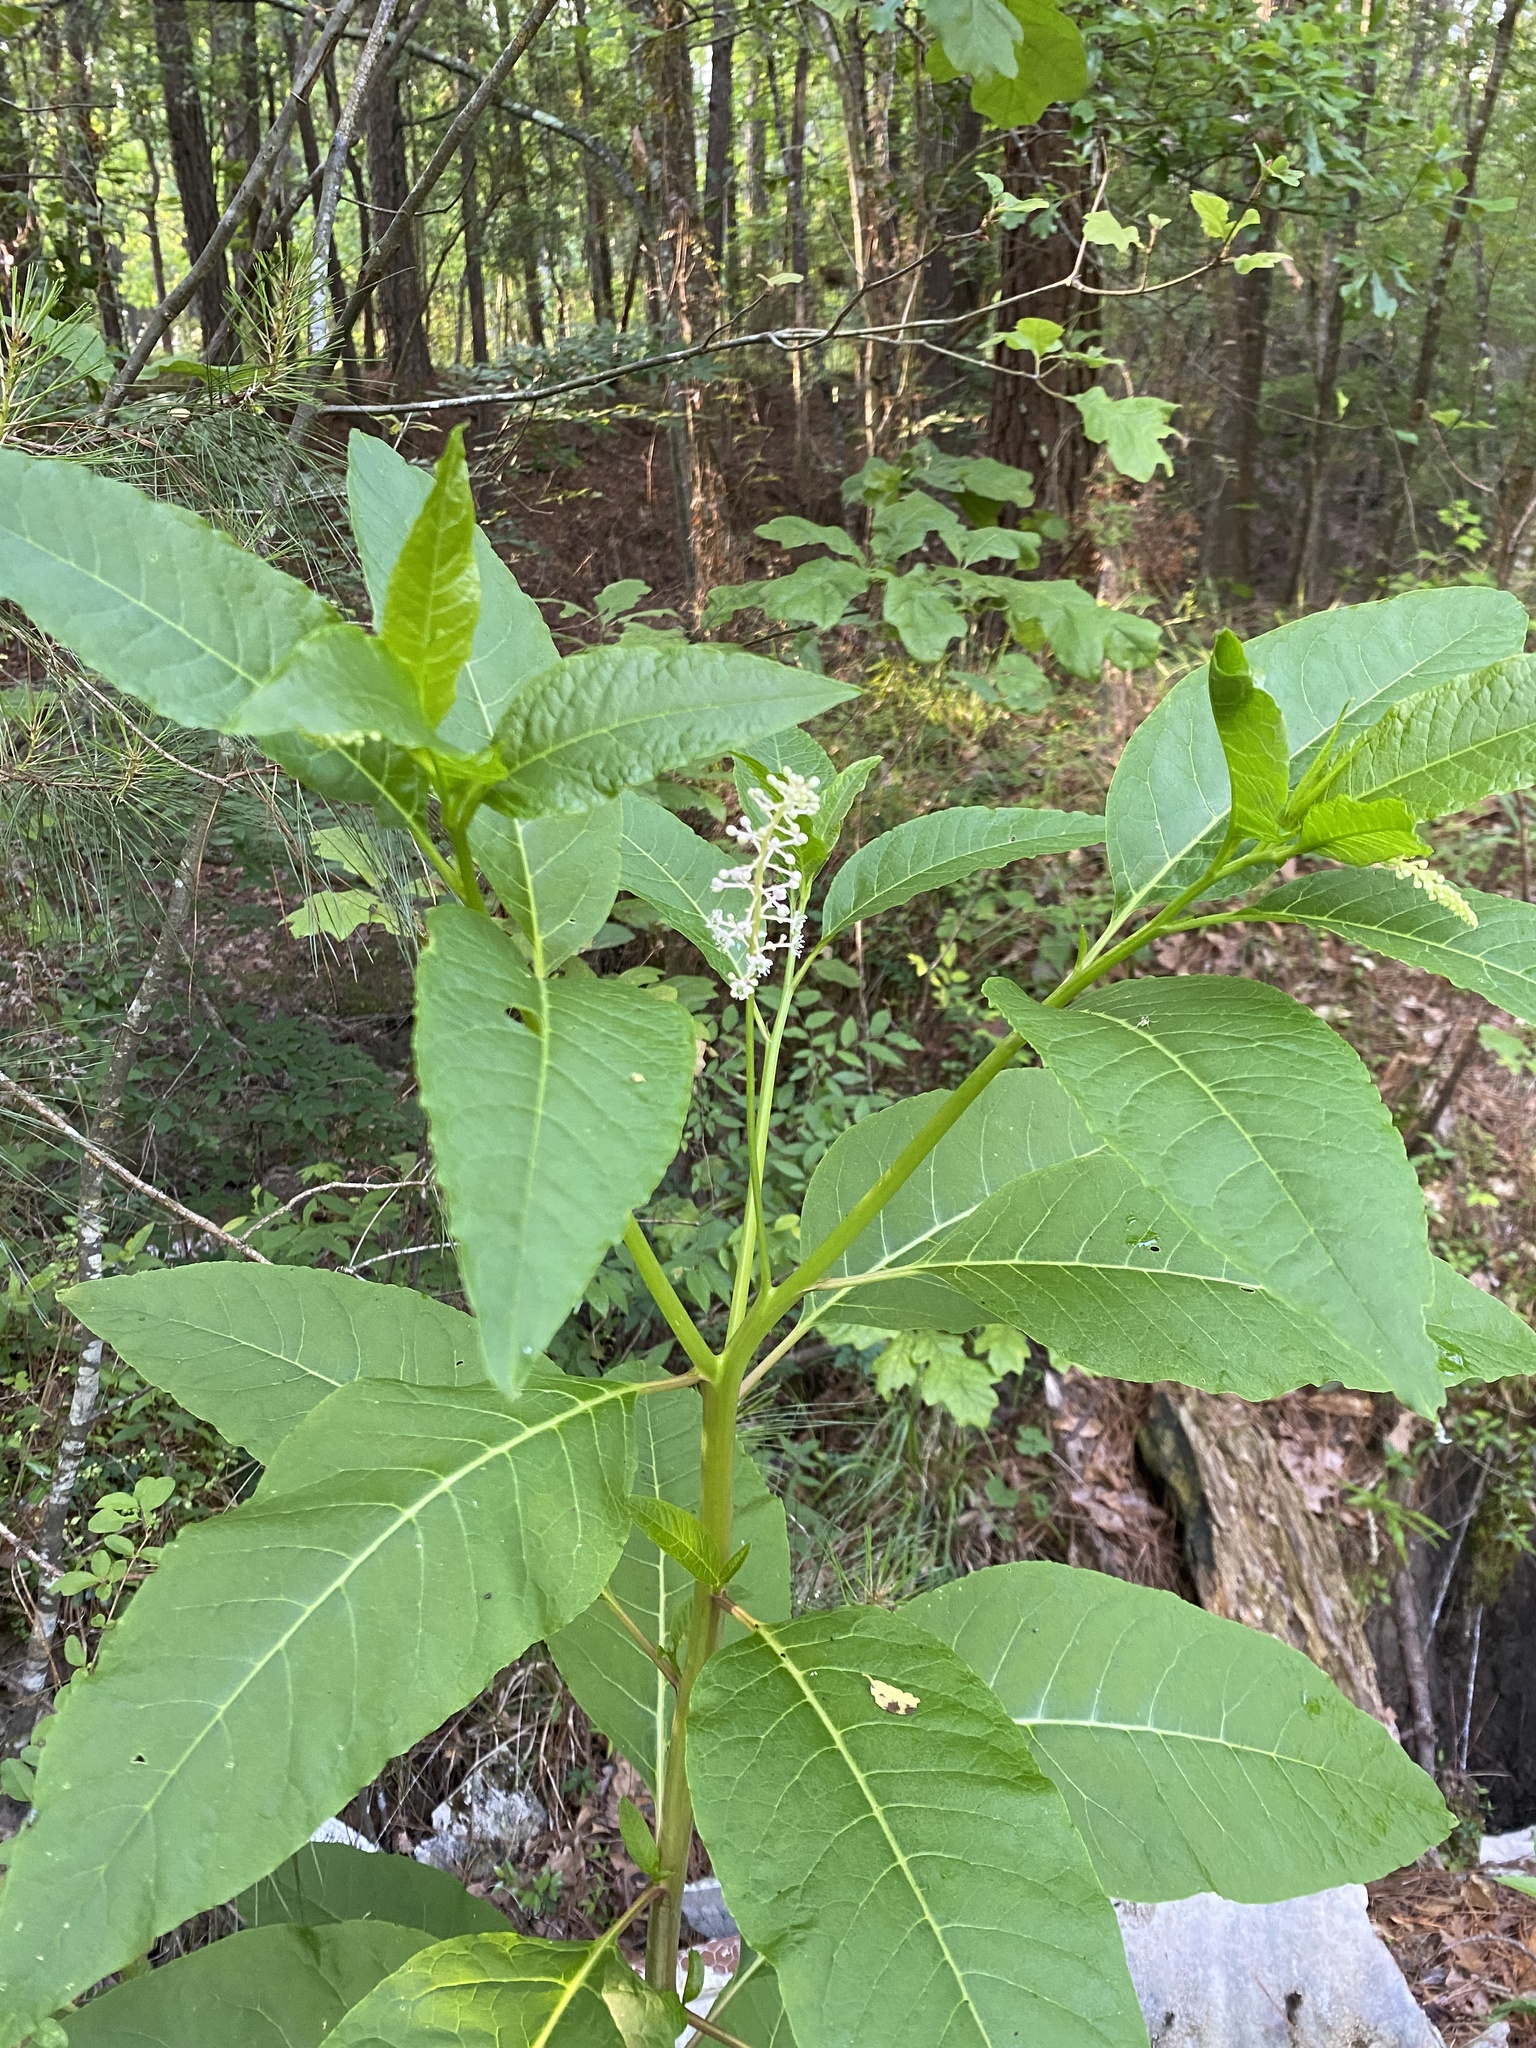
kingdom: Plantae
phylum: Tracheophyta
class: Magnoliopsida
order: Caryophyllales
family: Phytolaccaceae
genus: Phytolacca
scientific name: Phytolacca americana
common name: American pokeweed
